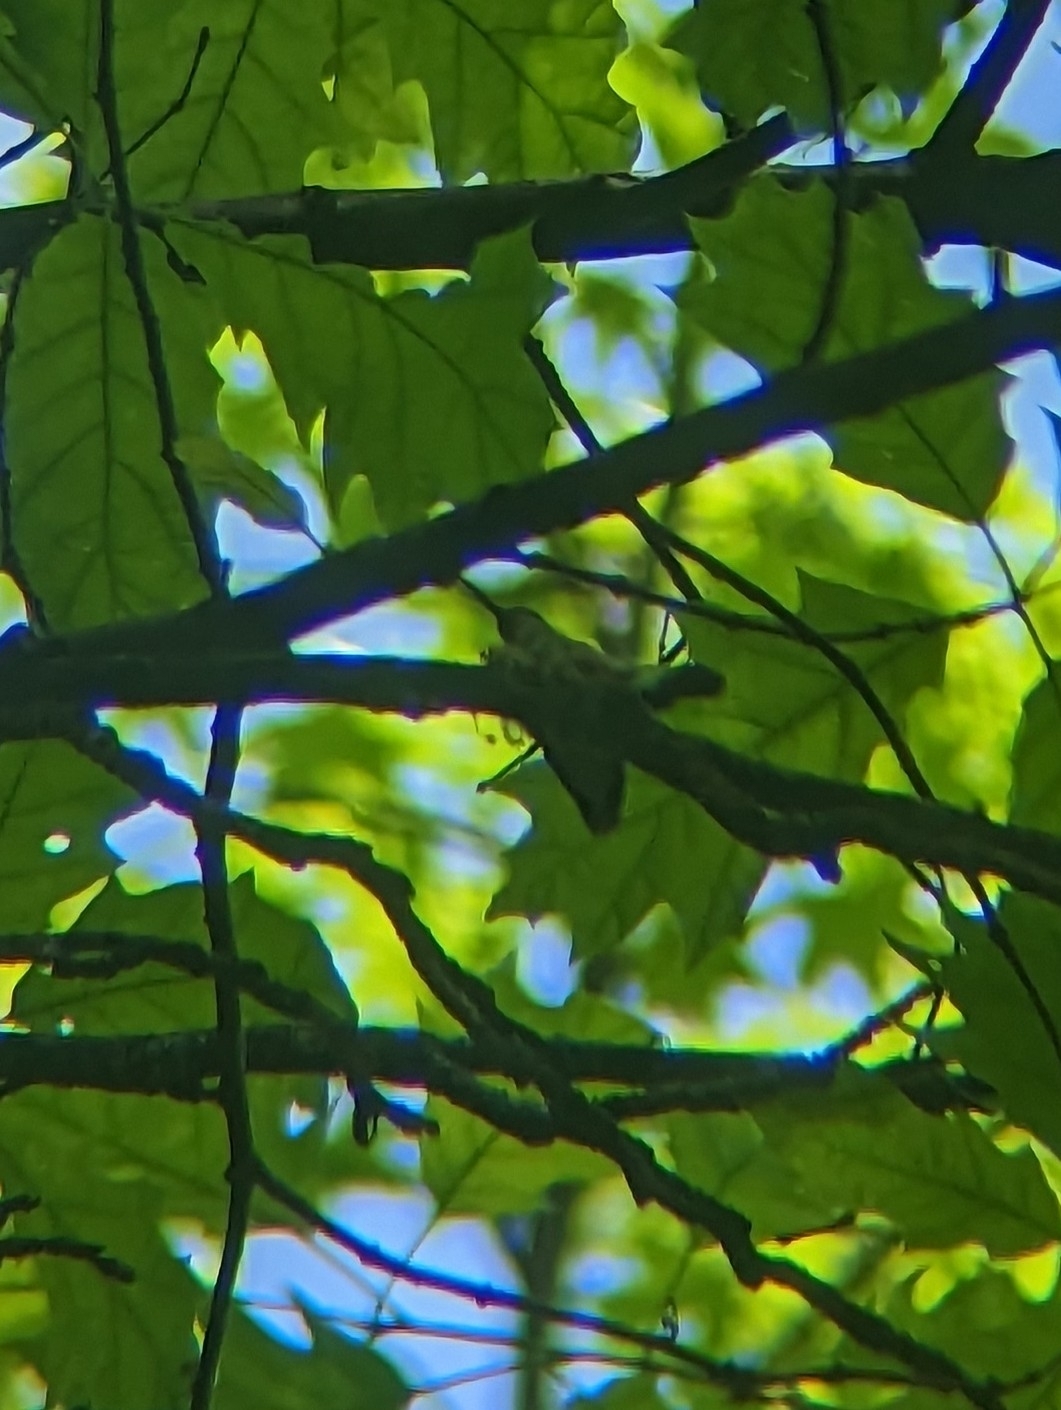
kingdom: Animalia
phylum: Chordata
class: Aves
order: Apodiformes
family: Trochilidae
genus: Archilochus
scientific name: Archilochus colubris
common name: Ruby-throated hummingbird
